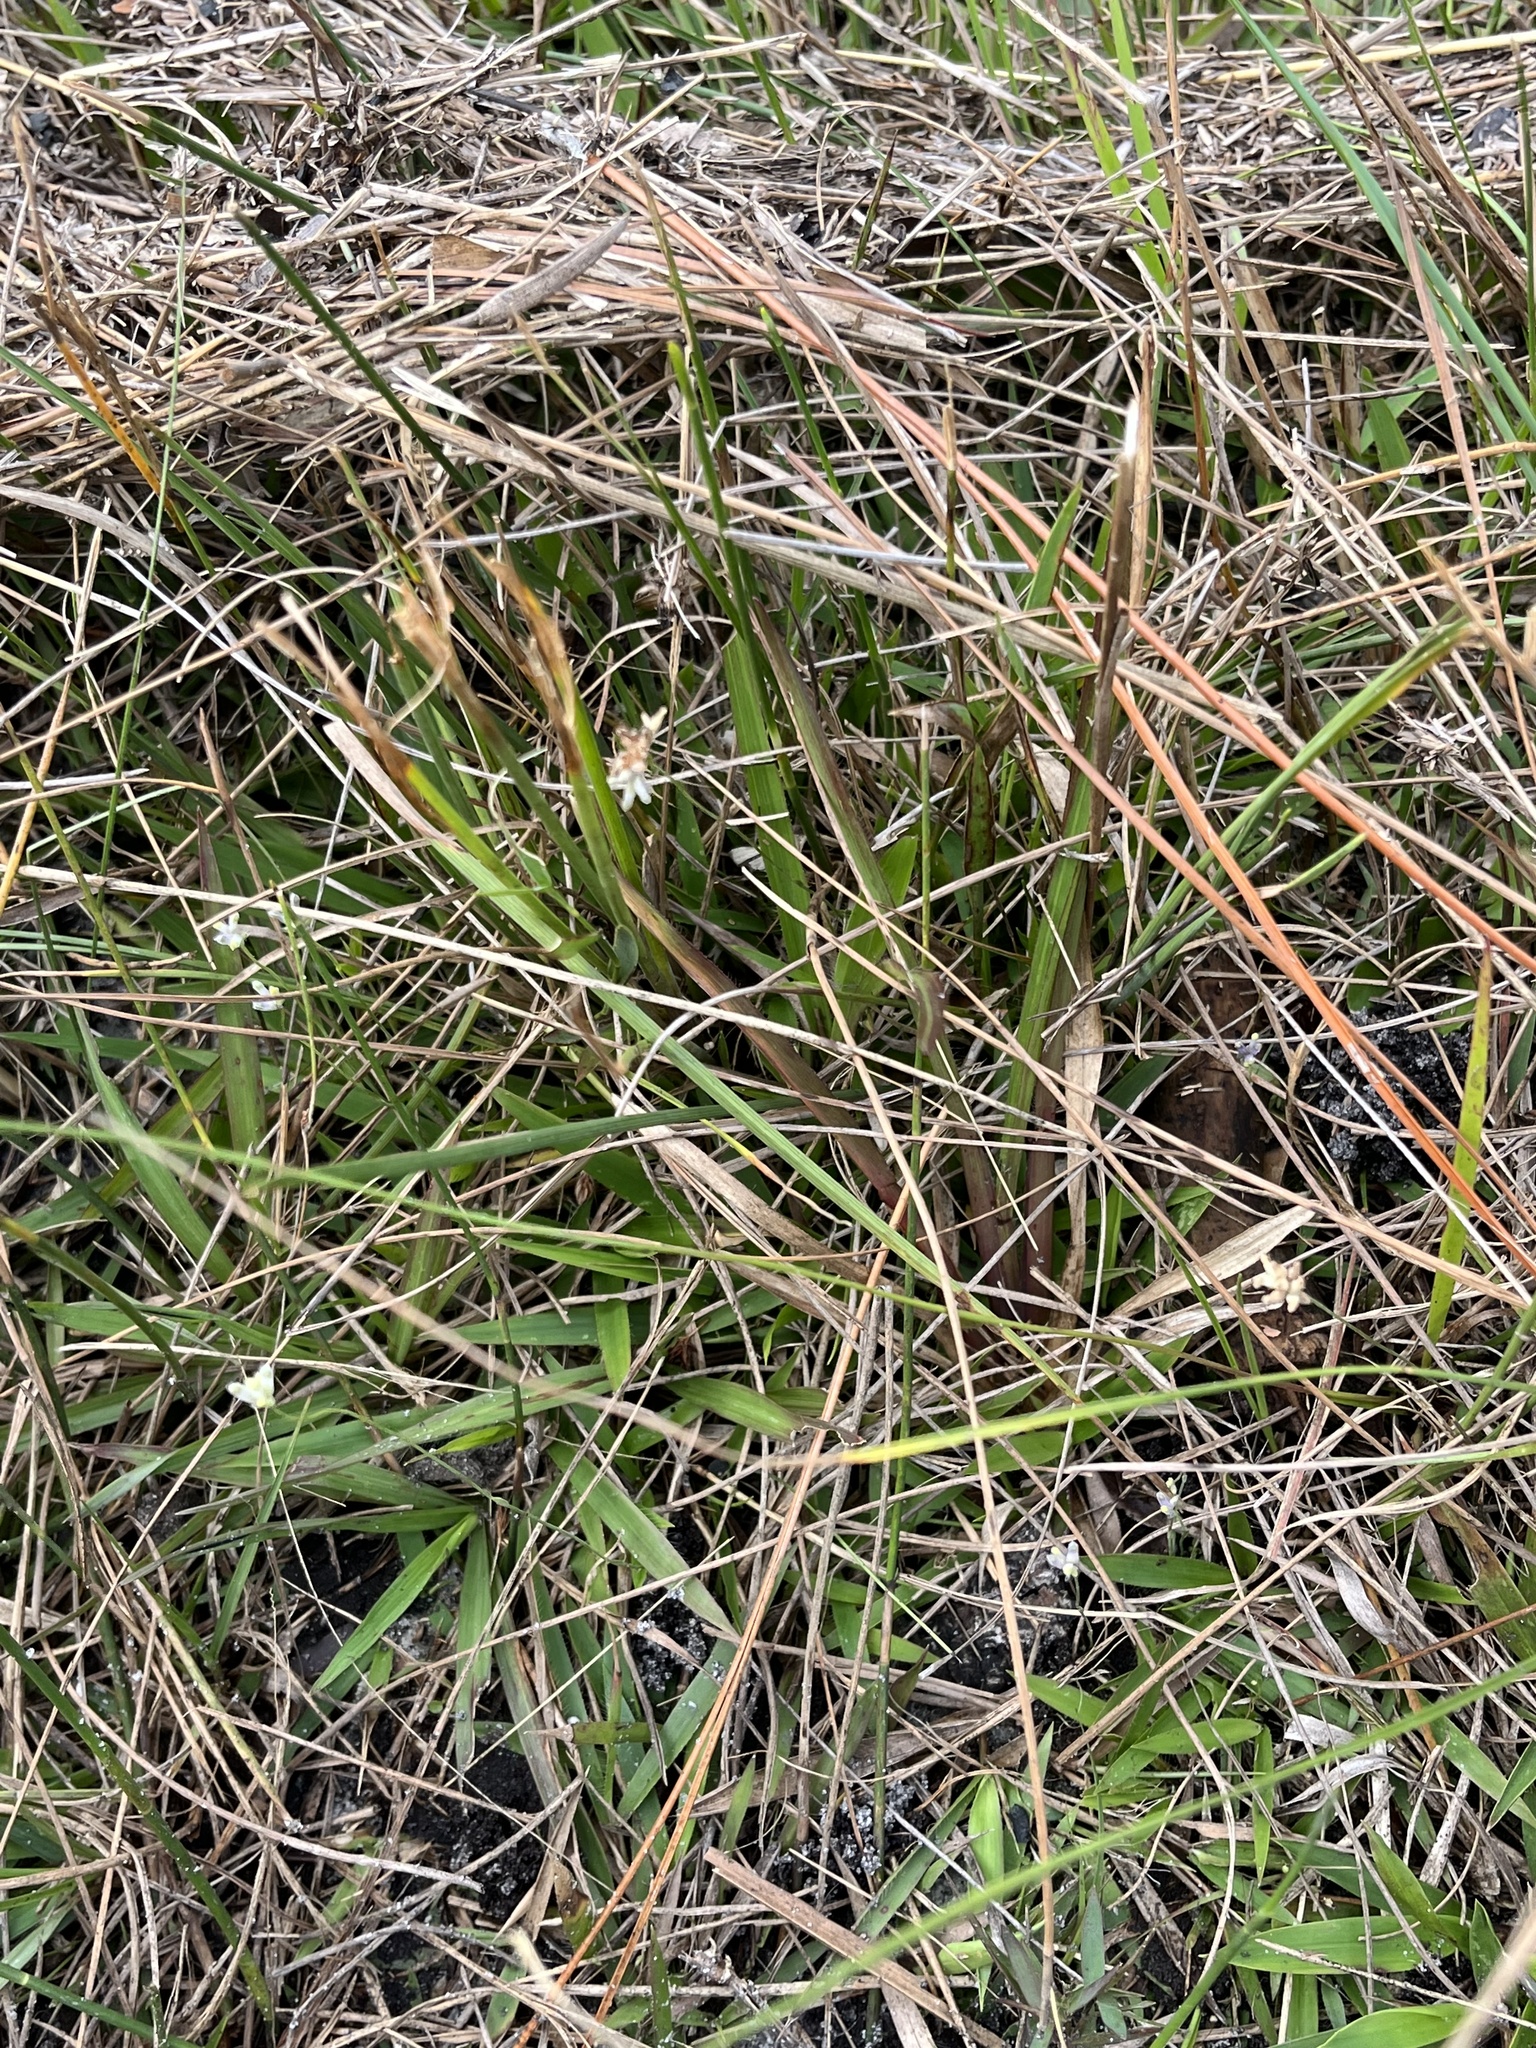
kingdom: Plantae
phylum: Tracheophyta
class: Liliopsida
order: Dioscoreales
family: Burmanniaceae
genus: Burmannia
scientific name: Burmannia capitata
